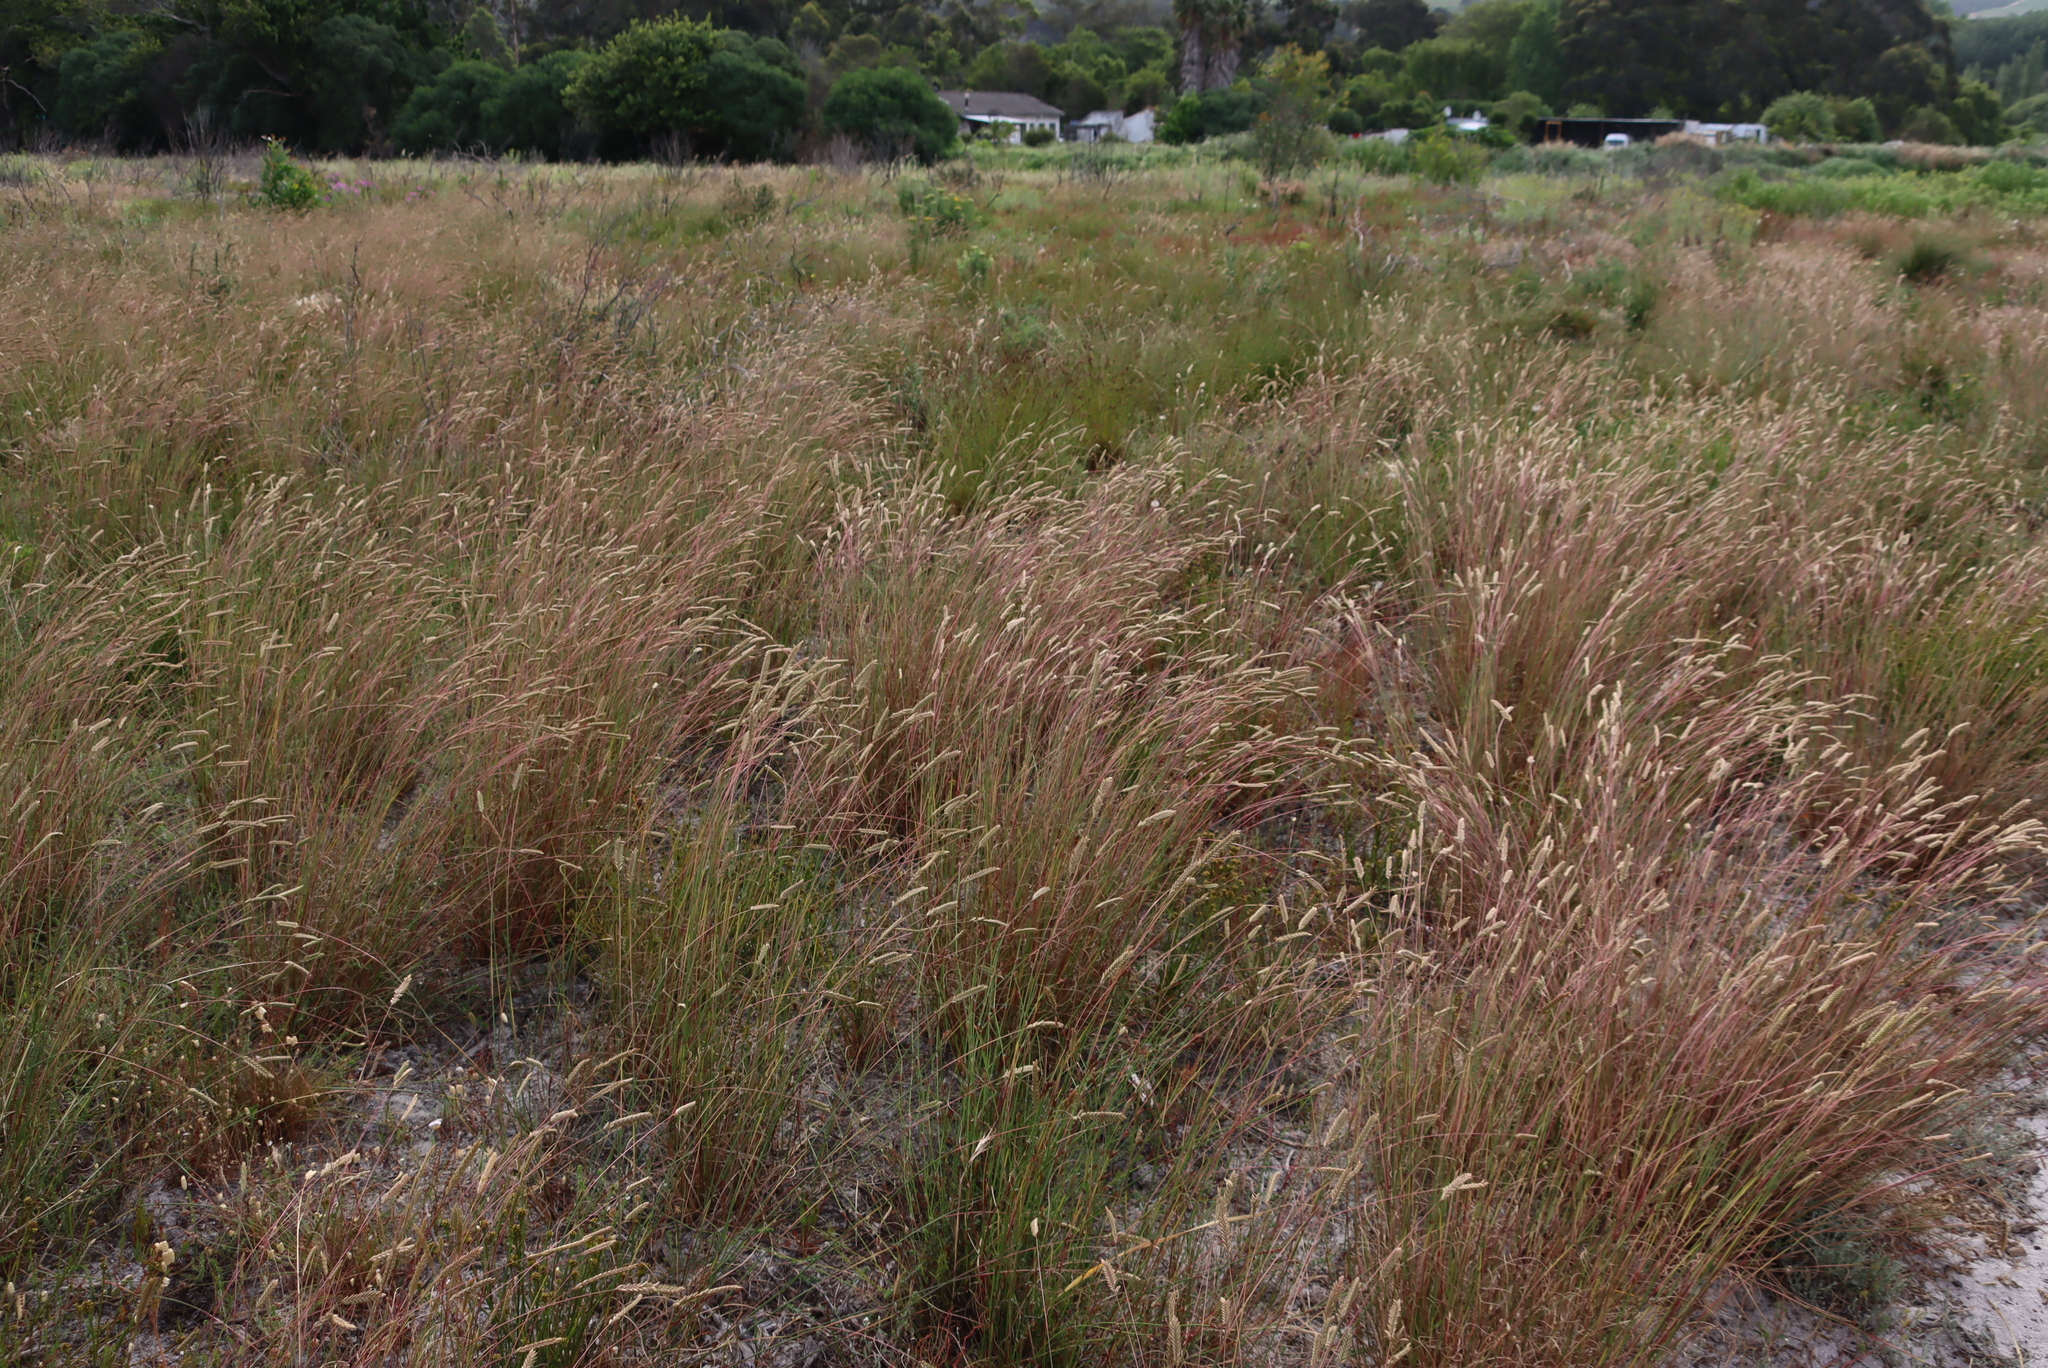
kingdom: Plantae
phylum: Tracheophyta
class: Liliopsida
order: Poales
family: Poaceae
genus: Tribolium
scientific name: Tribolium uniolae
